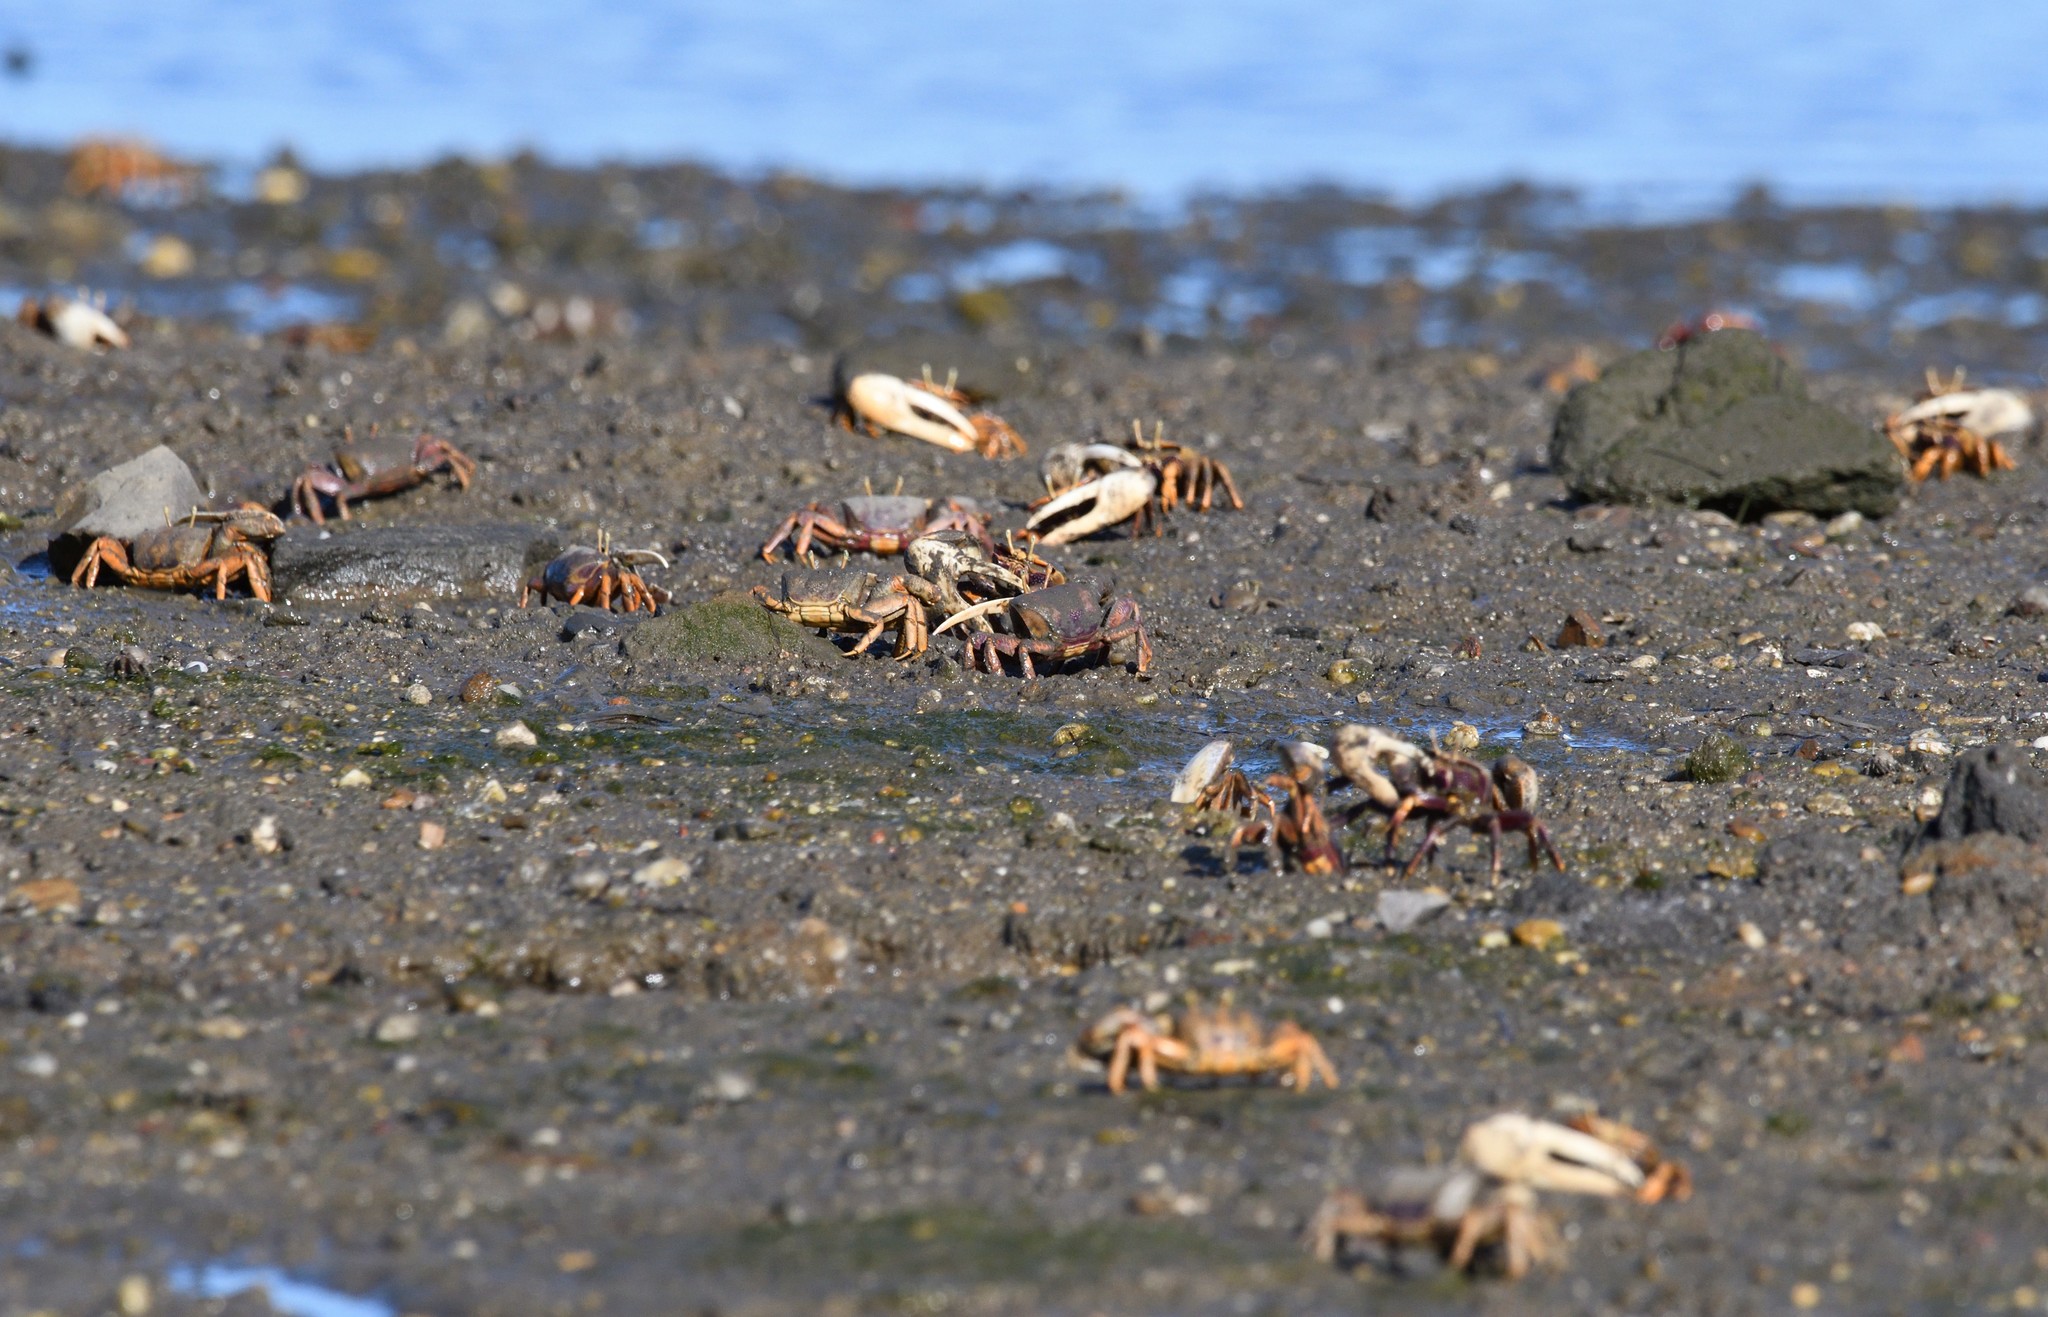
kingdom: Animalia
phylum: Arthropoda
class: Malacostraca
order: Decapoda
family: Ocypodidae
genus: Afruca
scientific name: Afruca tangeri
